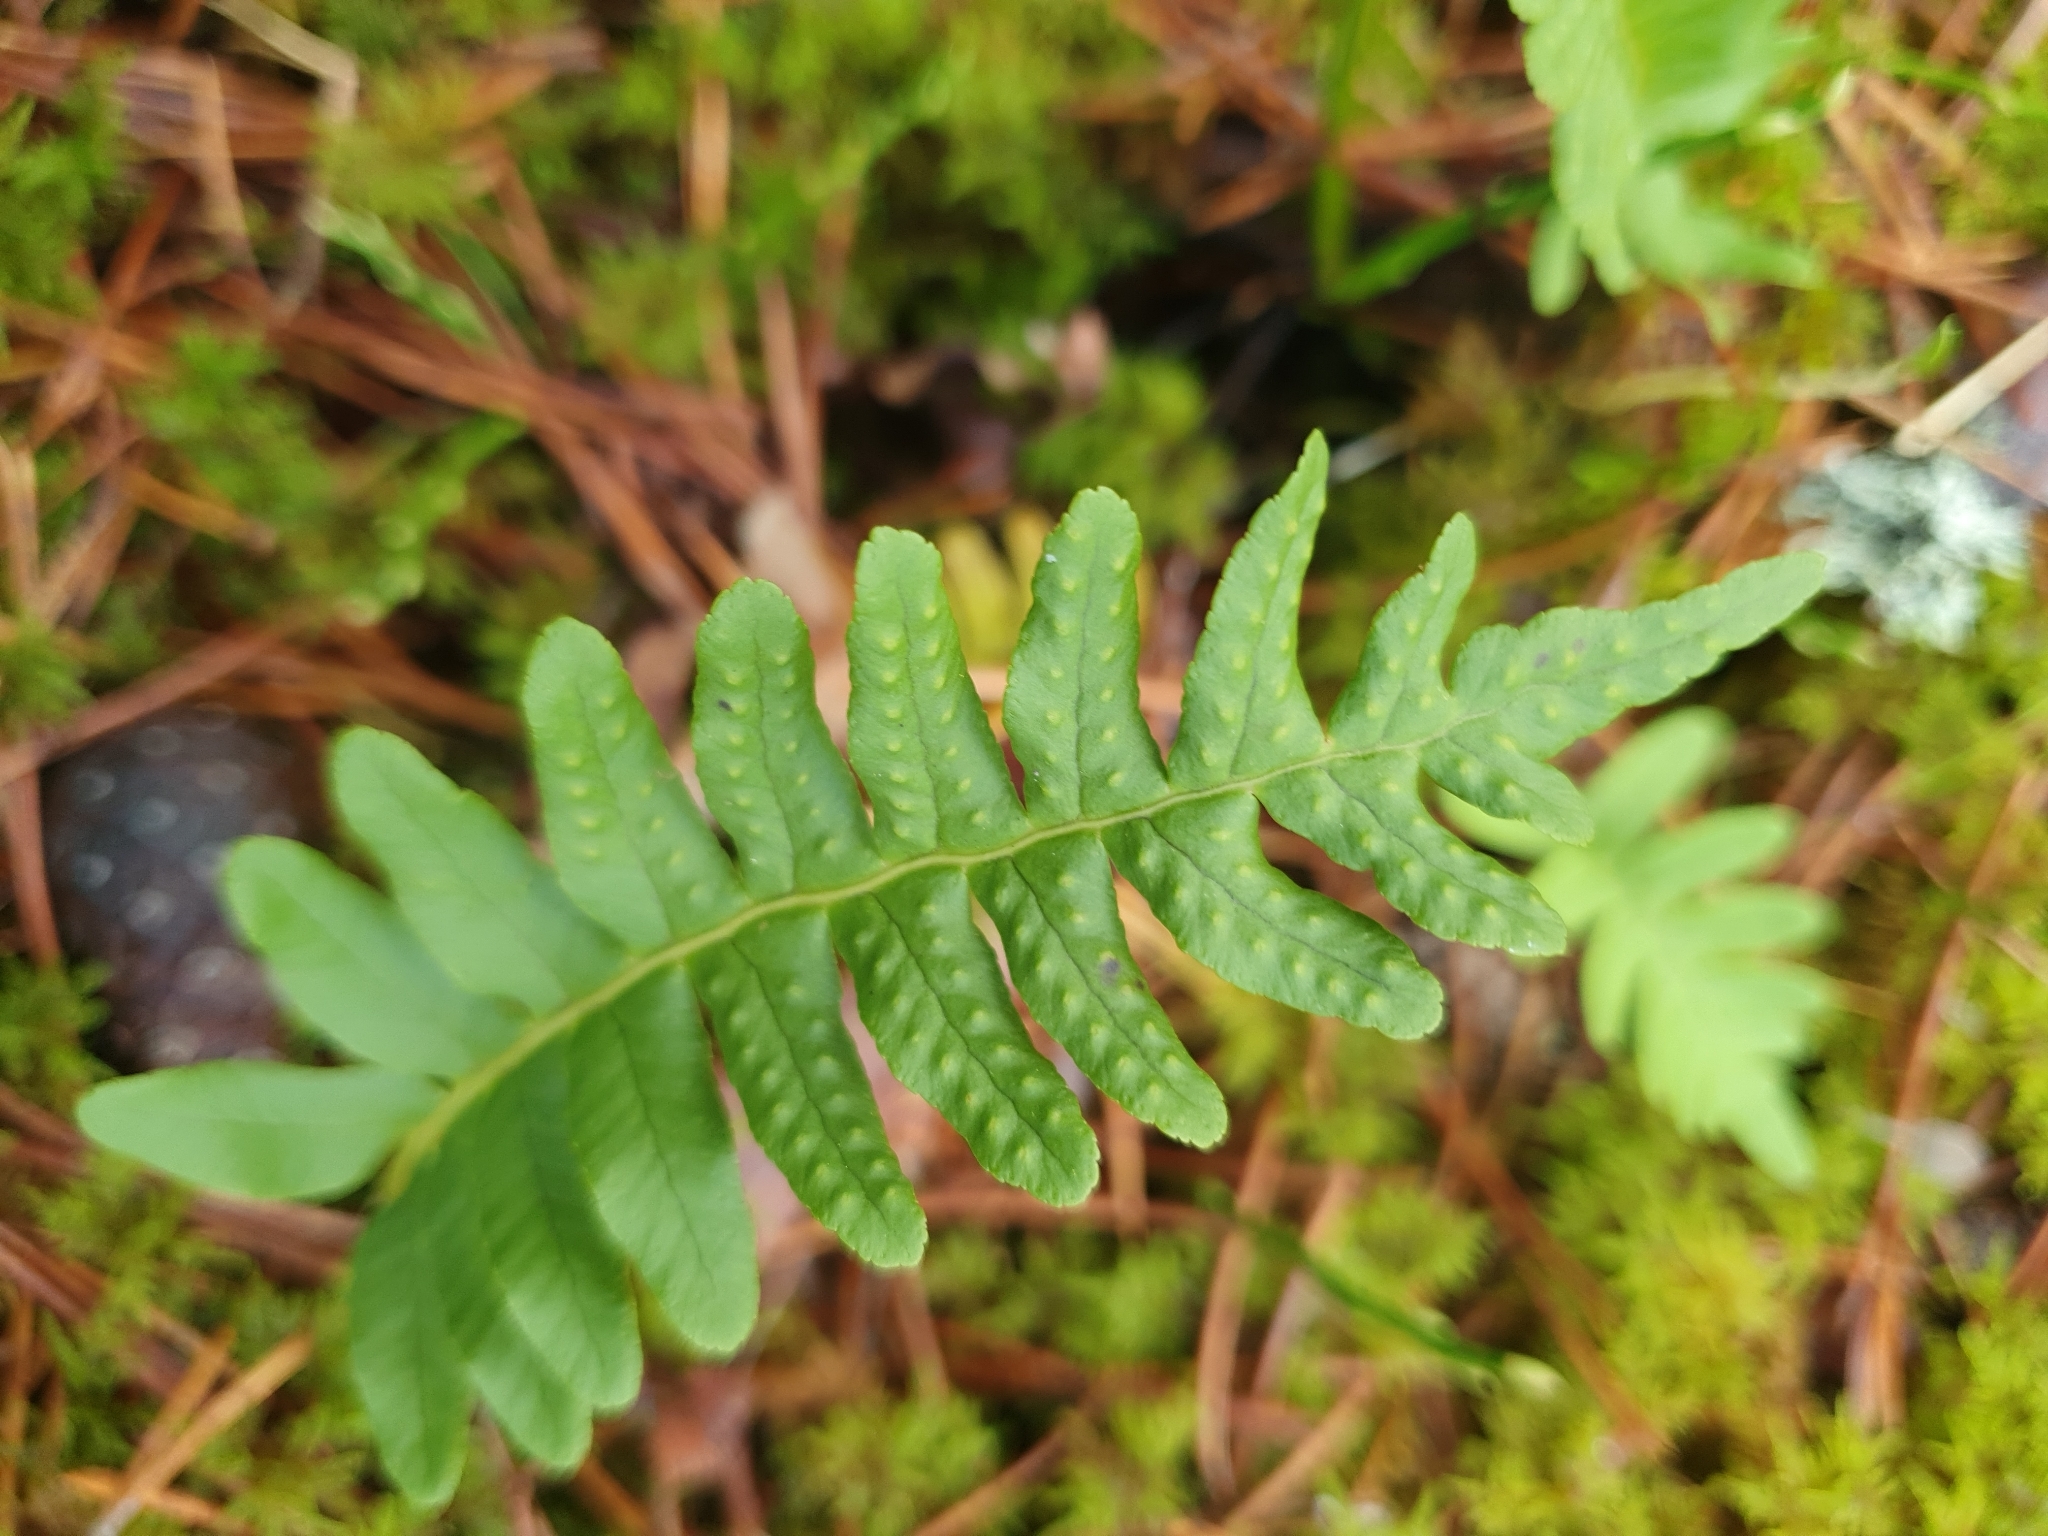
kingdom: Plantae
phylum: Tracheophyta
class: Polypodiopsida
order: Polypodiales
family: Polypodiaceae
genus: Polypodium
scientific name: Polypodium vulgare
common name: Common polypody
